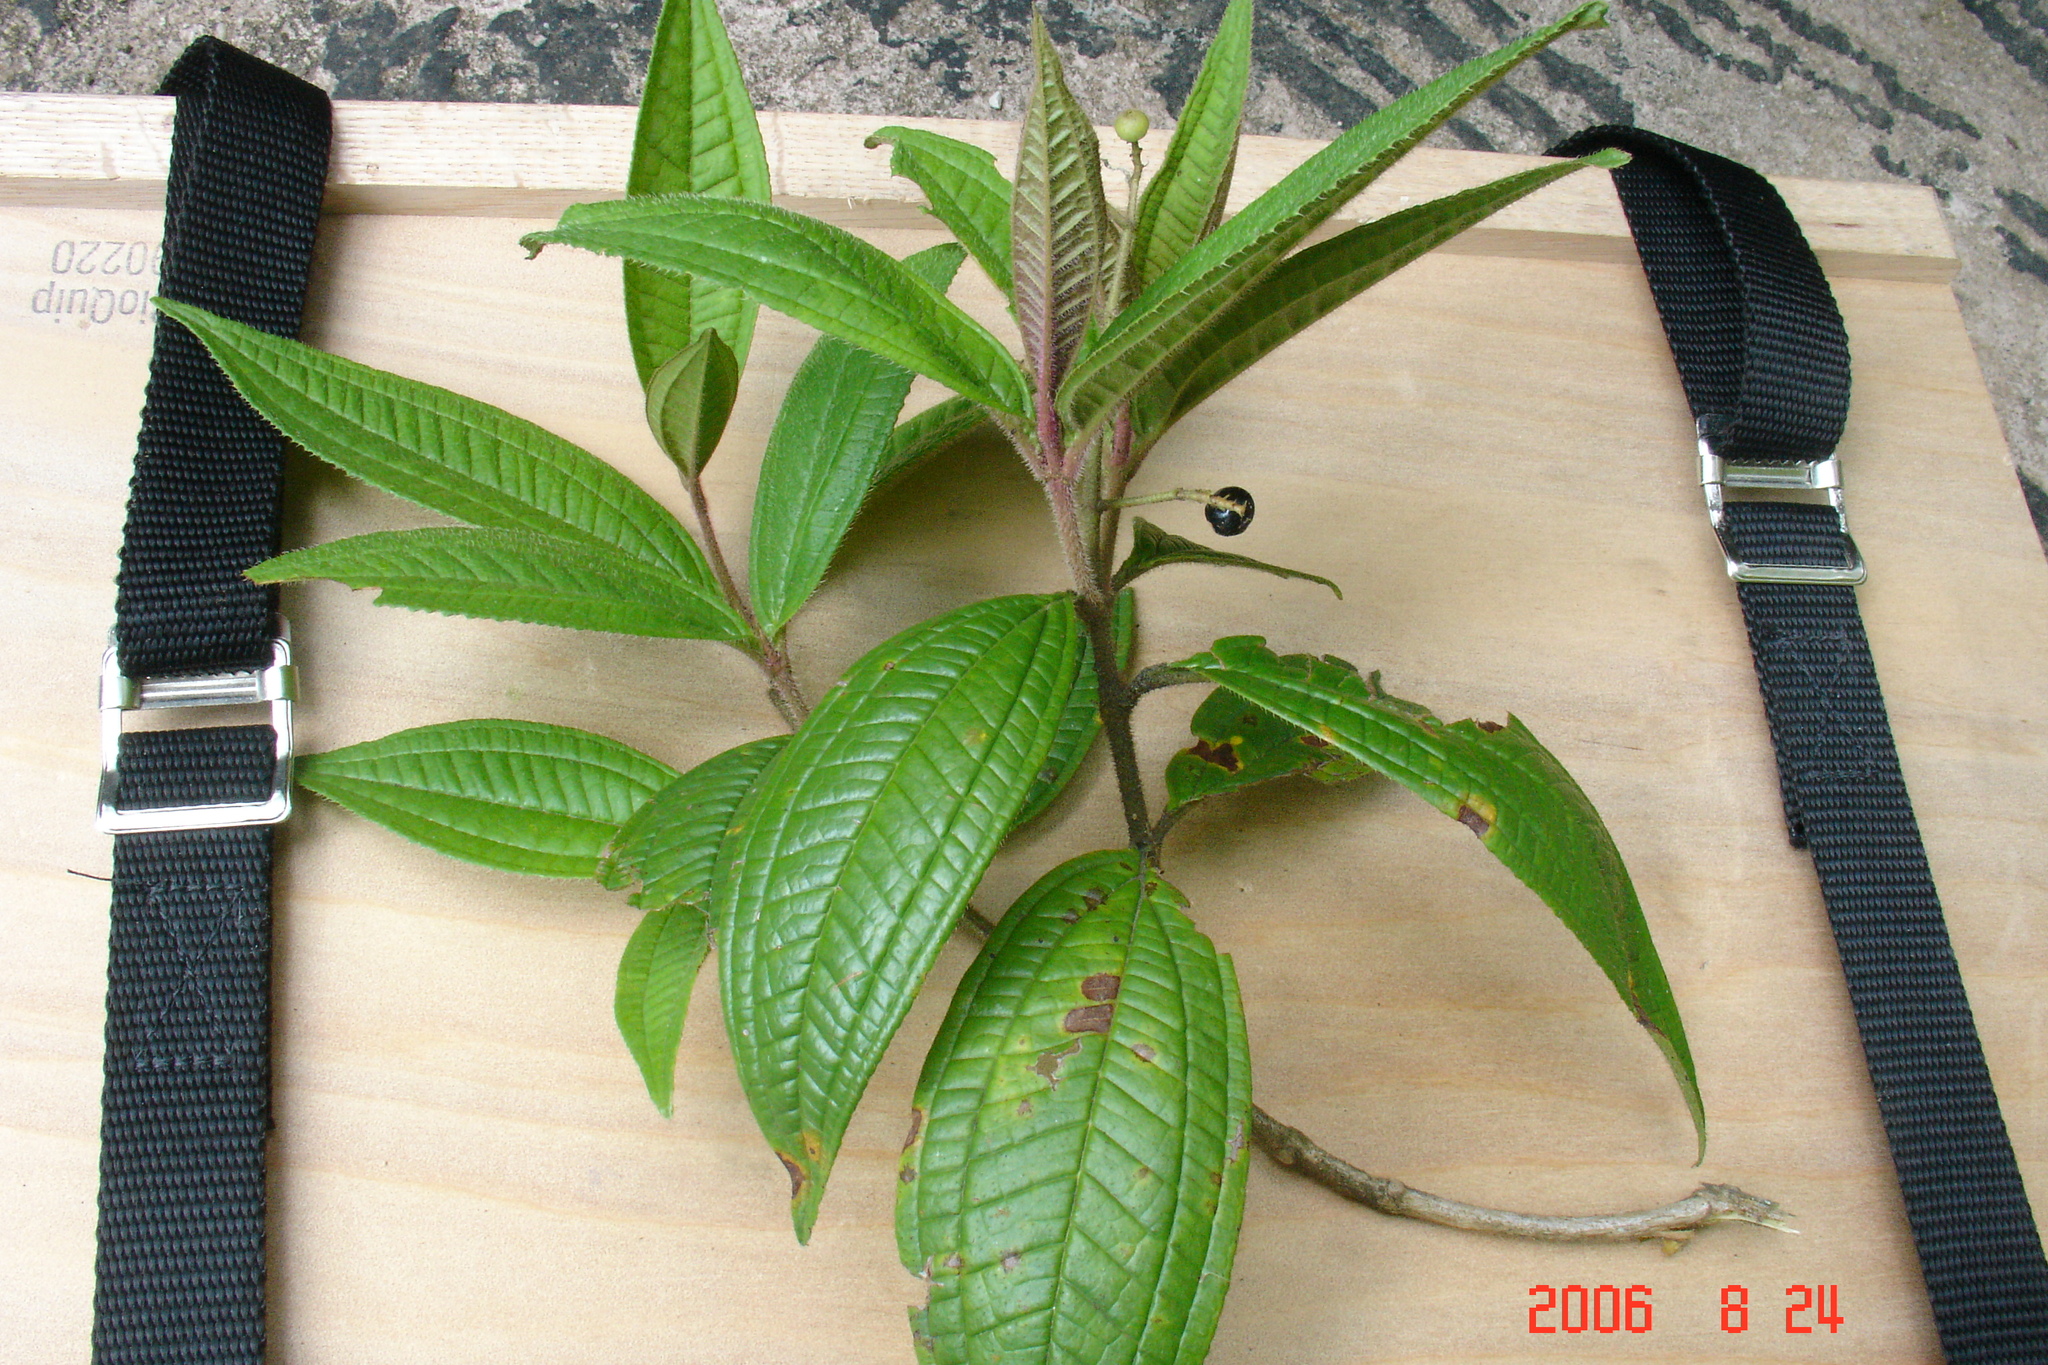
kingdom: Plantae
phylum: Tracheophyta
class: Magnoliopsida
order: Myrtales
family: Melastomataceae
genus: Miconia
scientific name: Miconia ibaguensis
